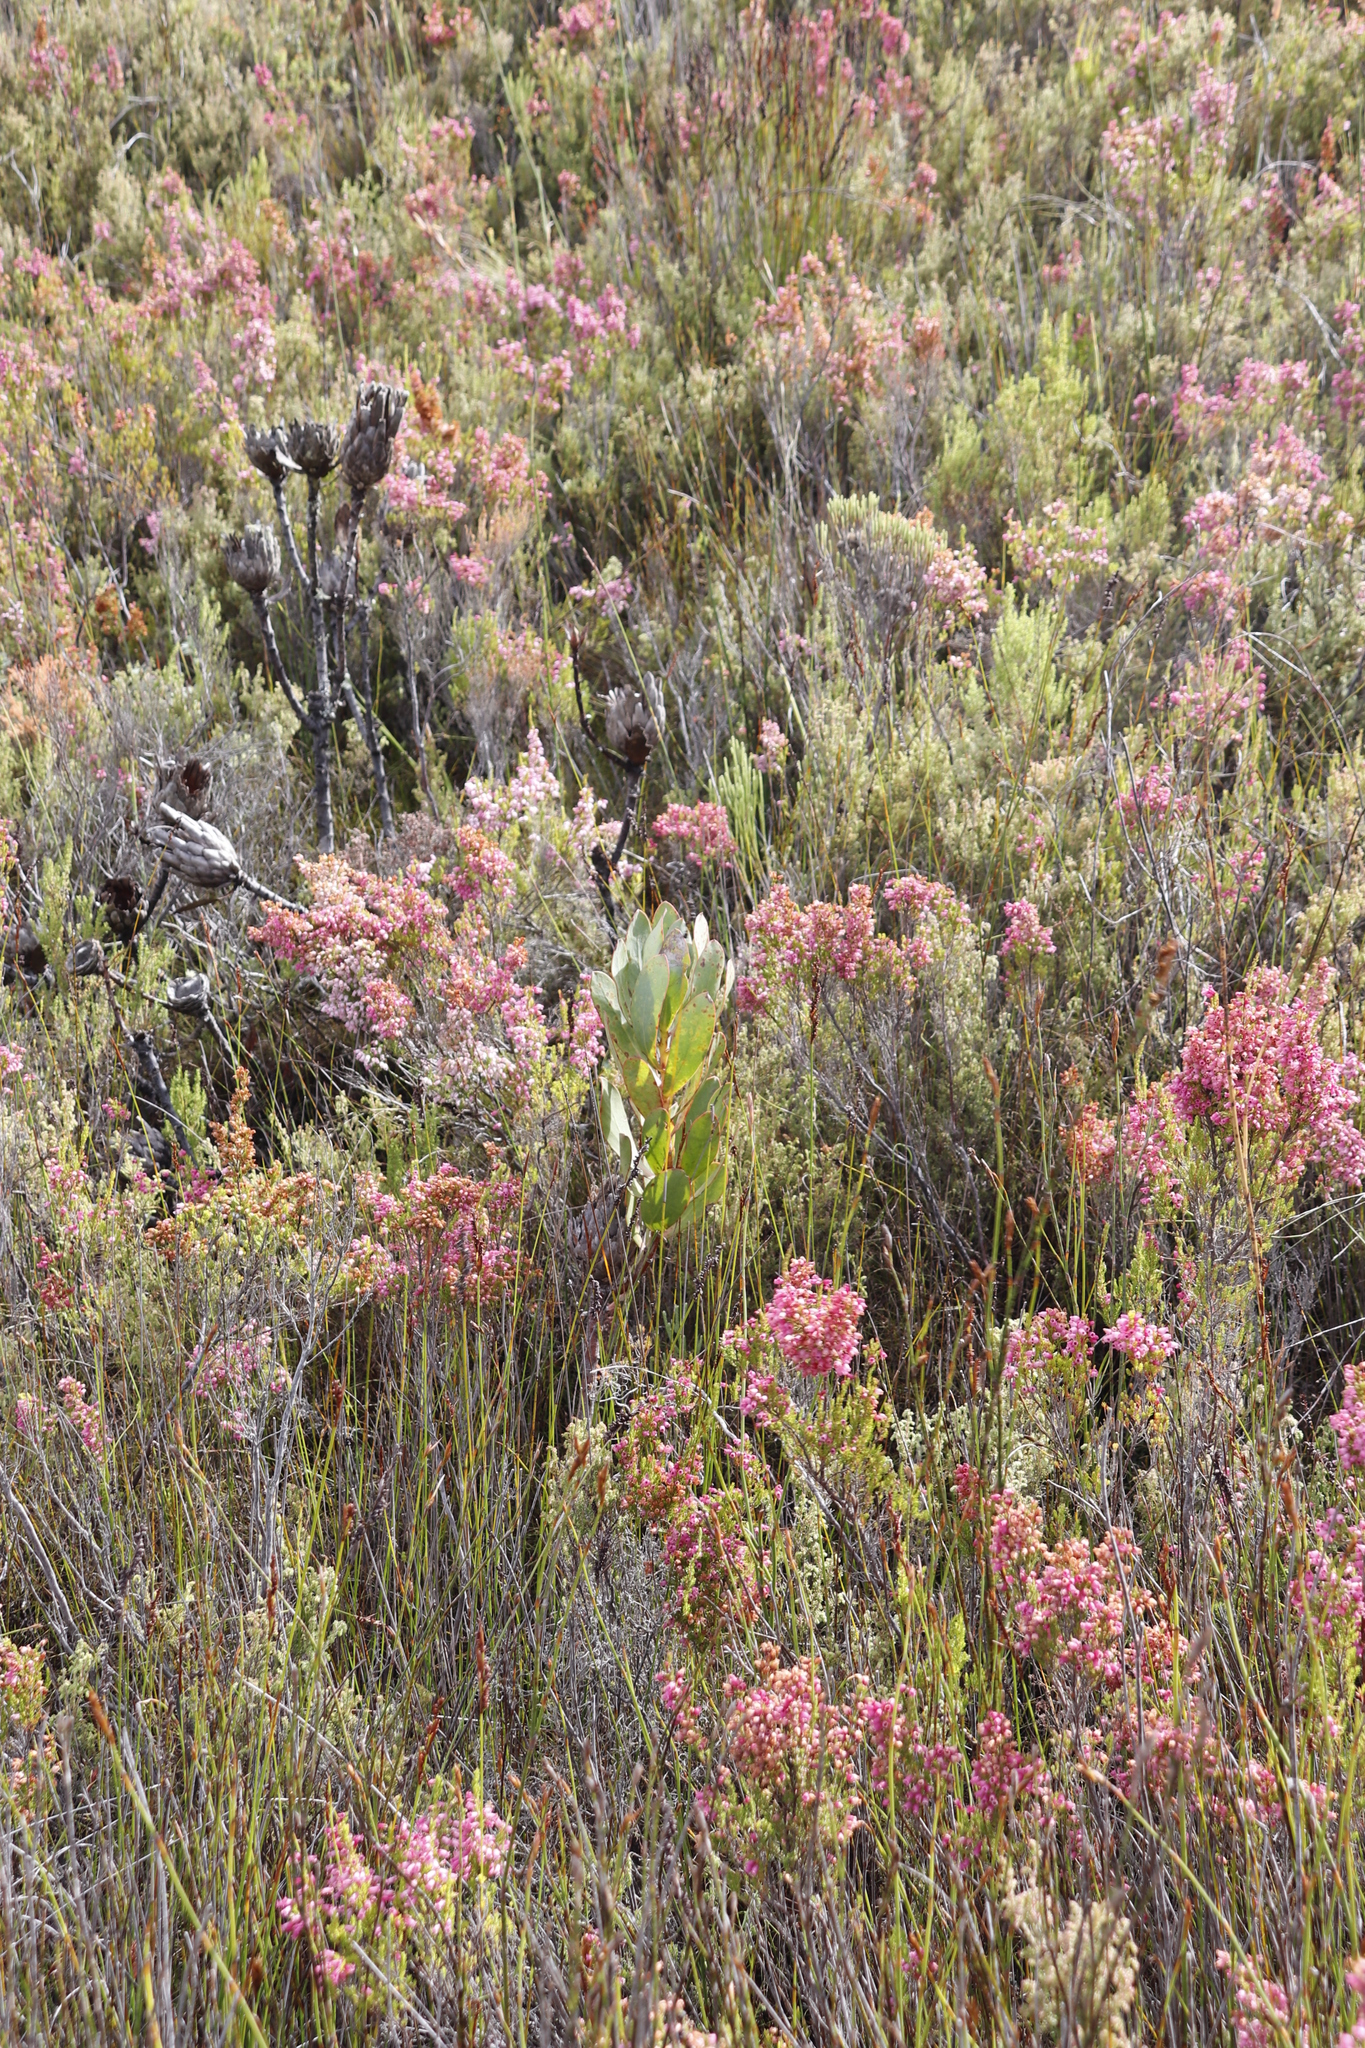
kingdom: Plantae
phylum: Tracheophyta
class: Magnoliopsida
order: Proteales
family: Proteaceae
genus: Protea
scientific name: Protea stokoei
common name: Pink sugarbush
